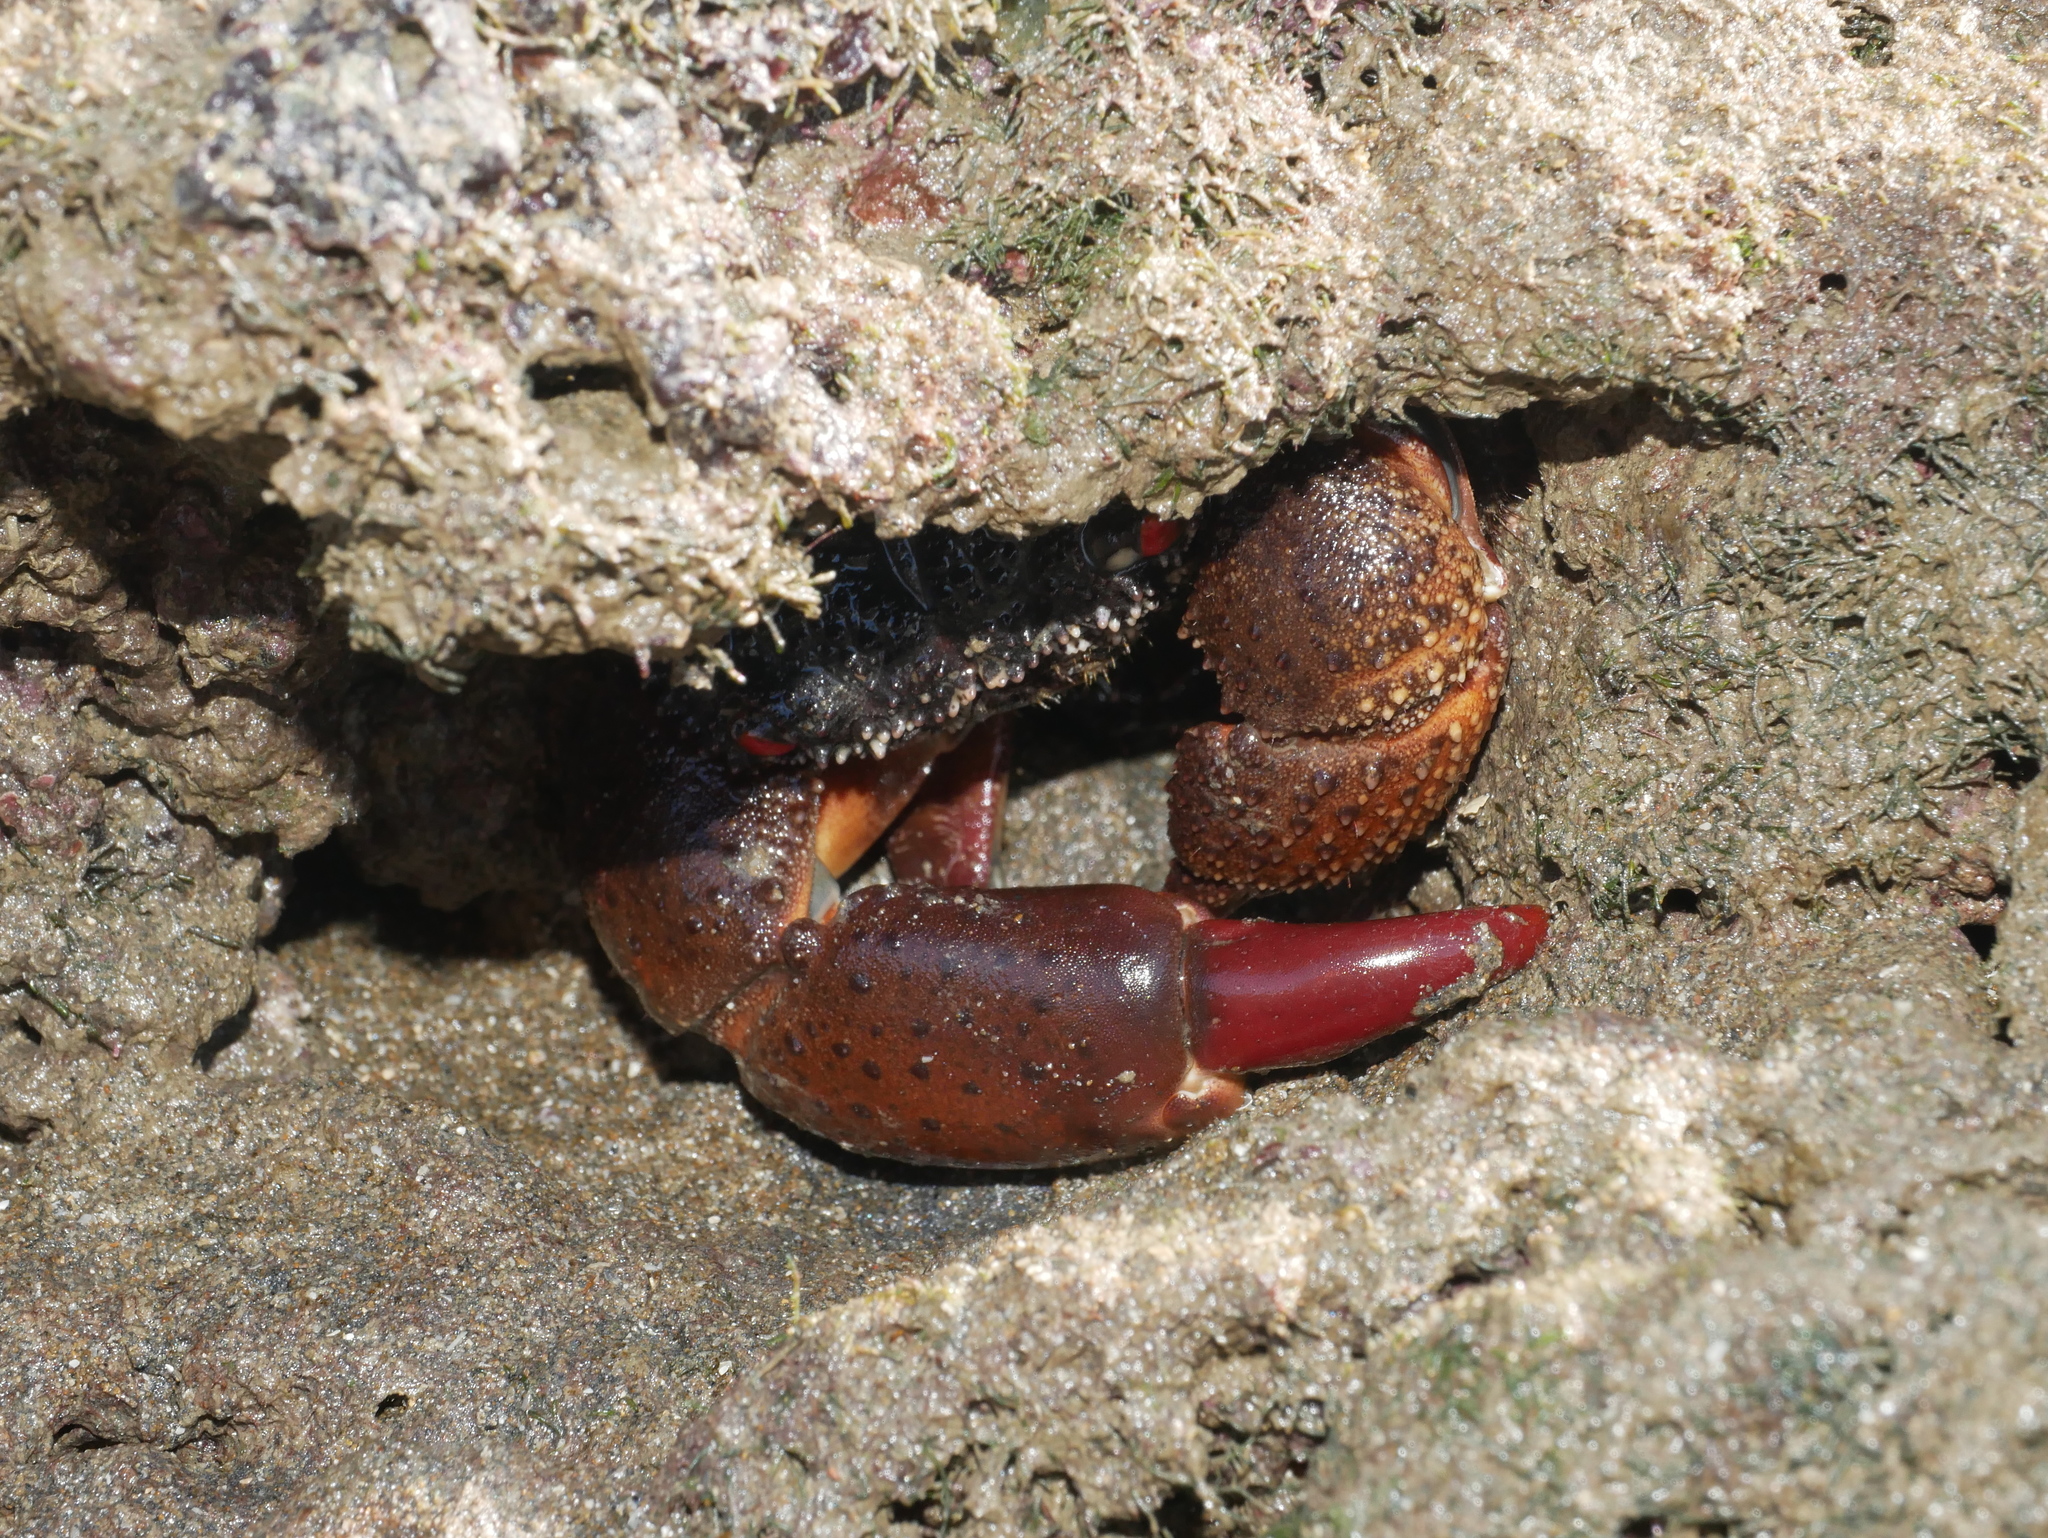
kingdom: Animalia
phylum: Arthropoda
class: Malacostraca
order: Decapoda
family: Eriphiidae
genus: Eriphia
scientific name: Eriphia ferox
